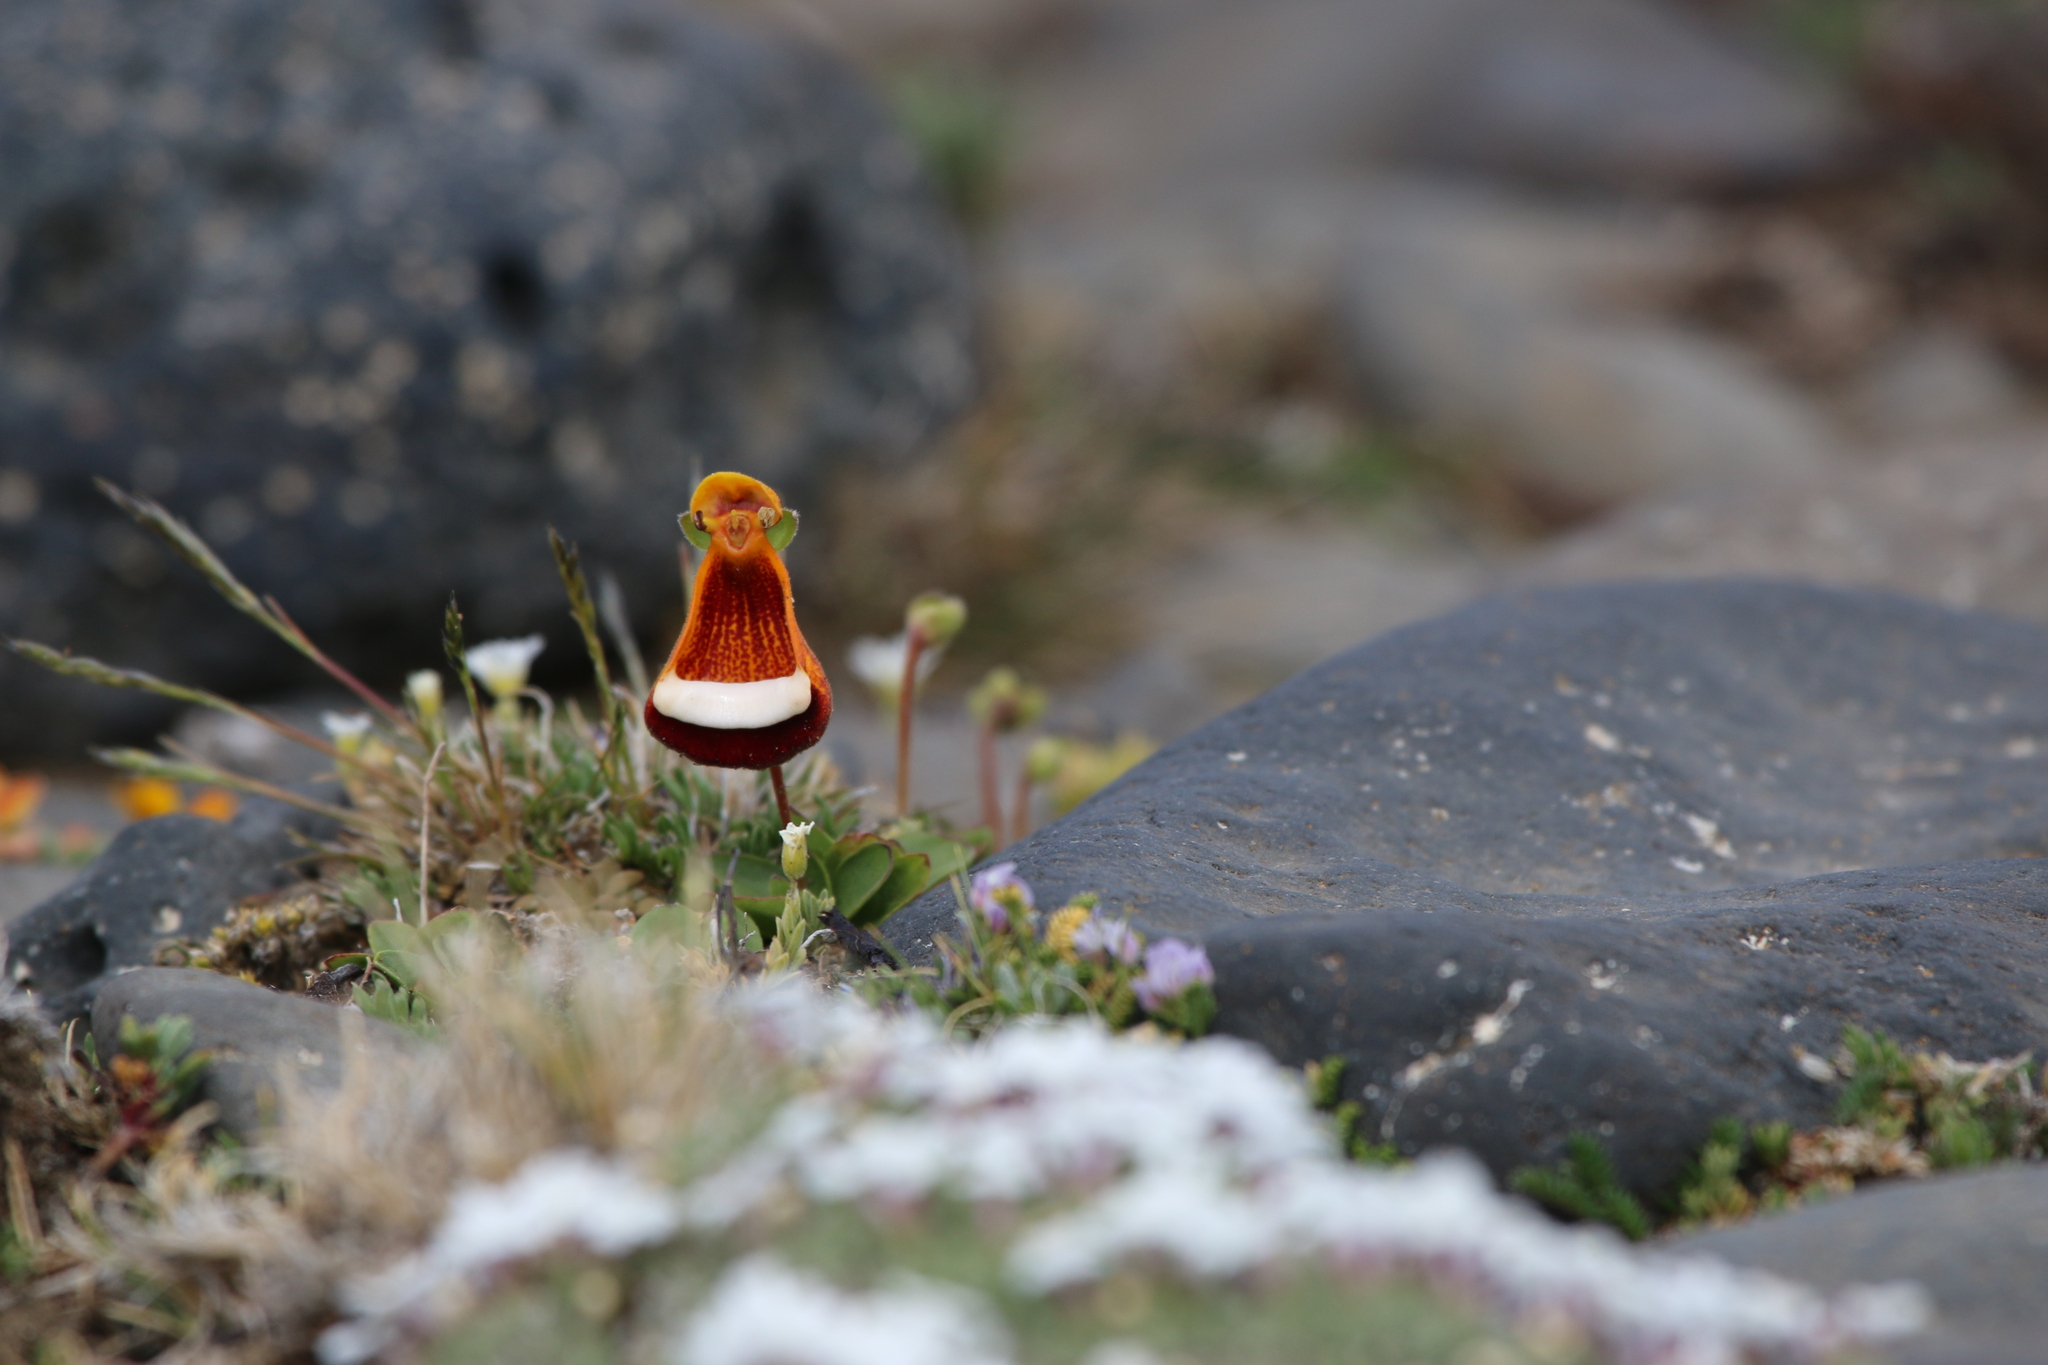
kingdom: Plantae
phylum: Tracheophyta
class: Magnoliopsida
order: Lamiales
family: Calceolariaceae
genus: Calceolaria
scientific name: Calceolaria uniflora
